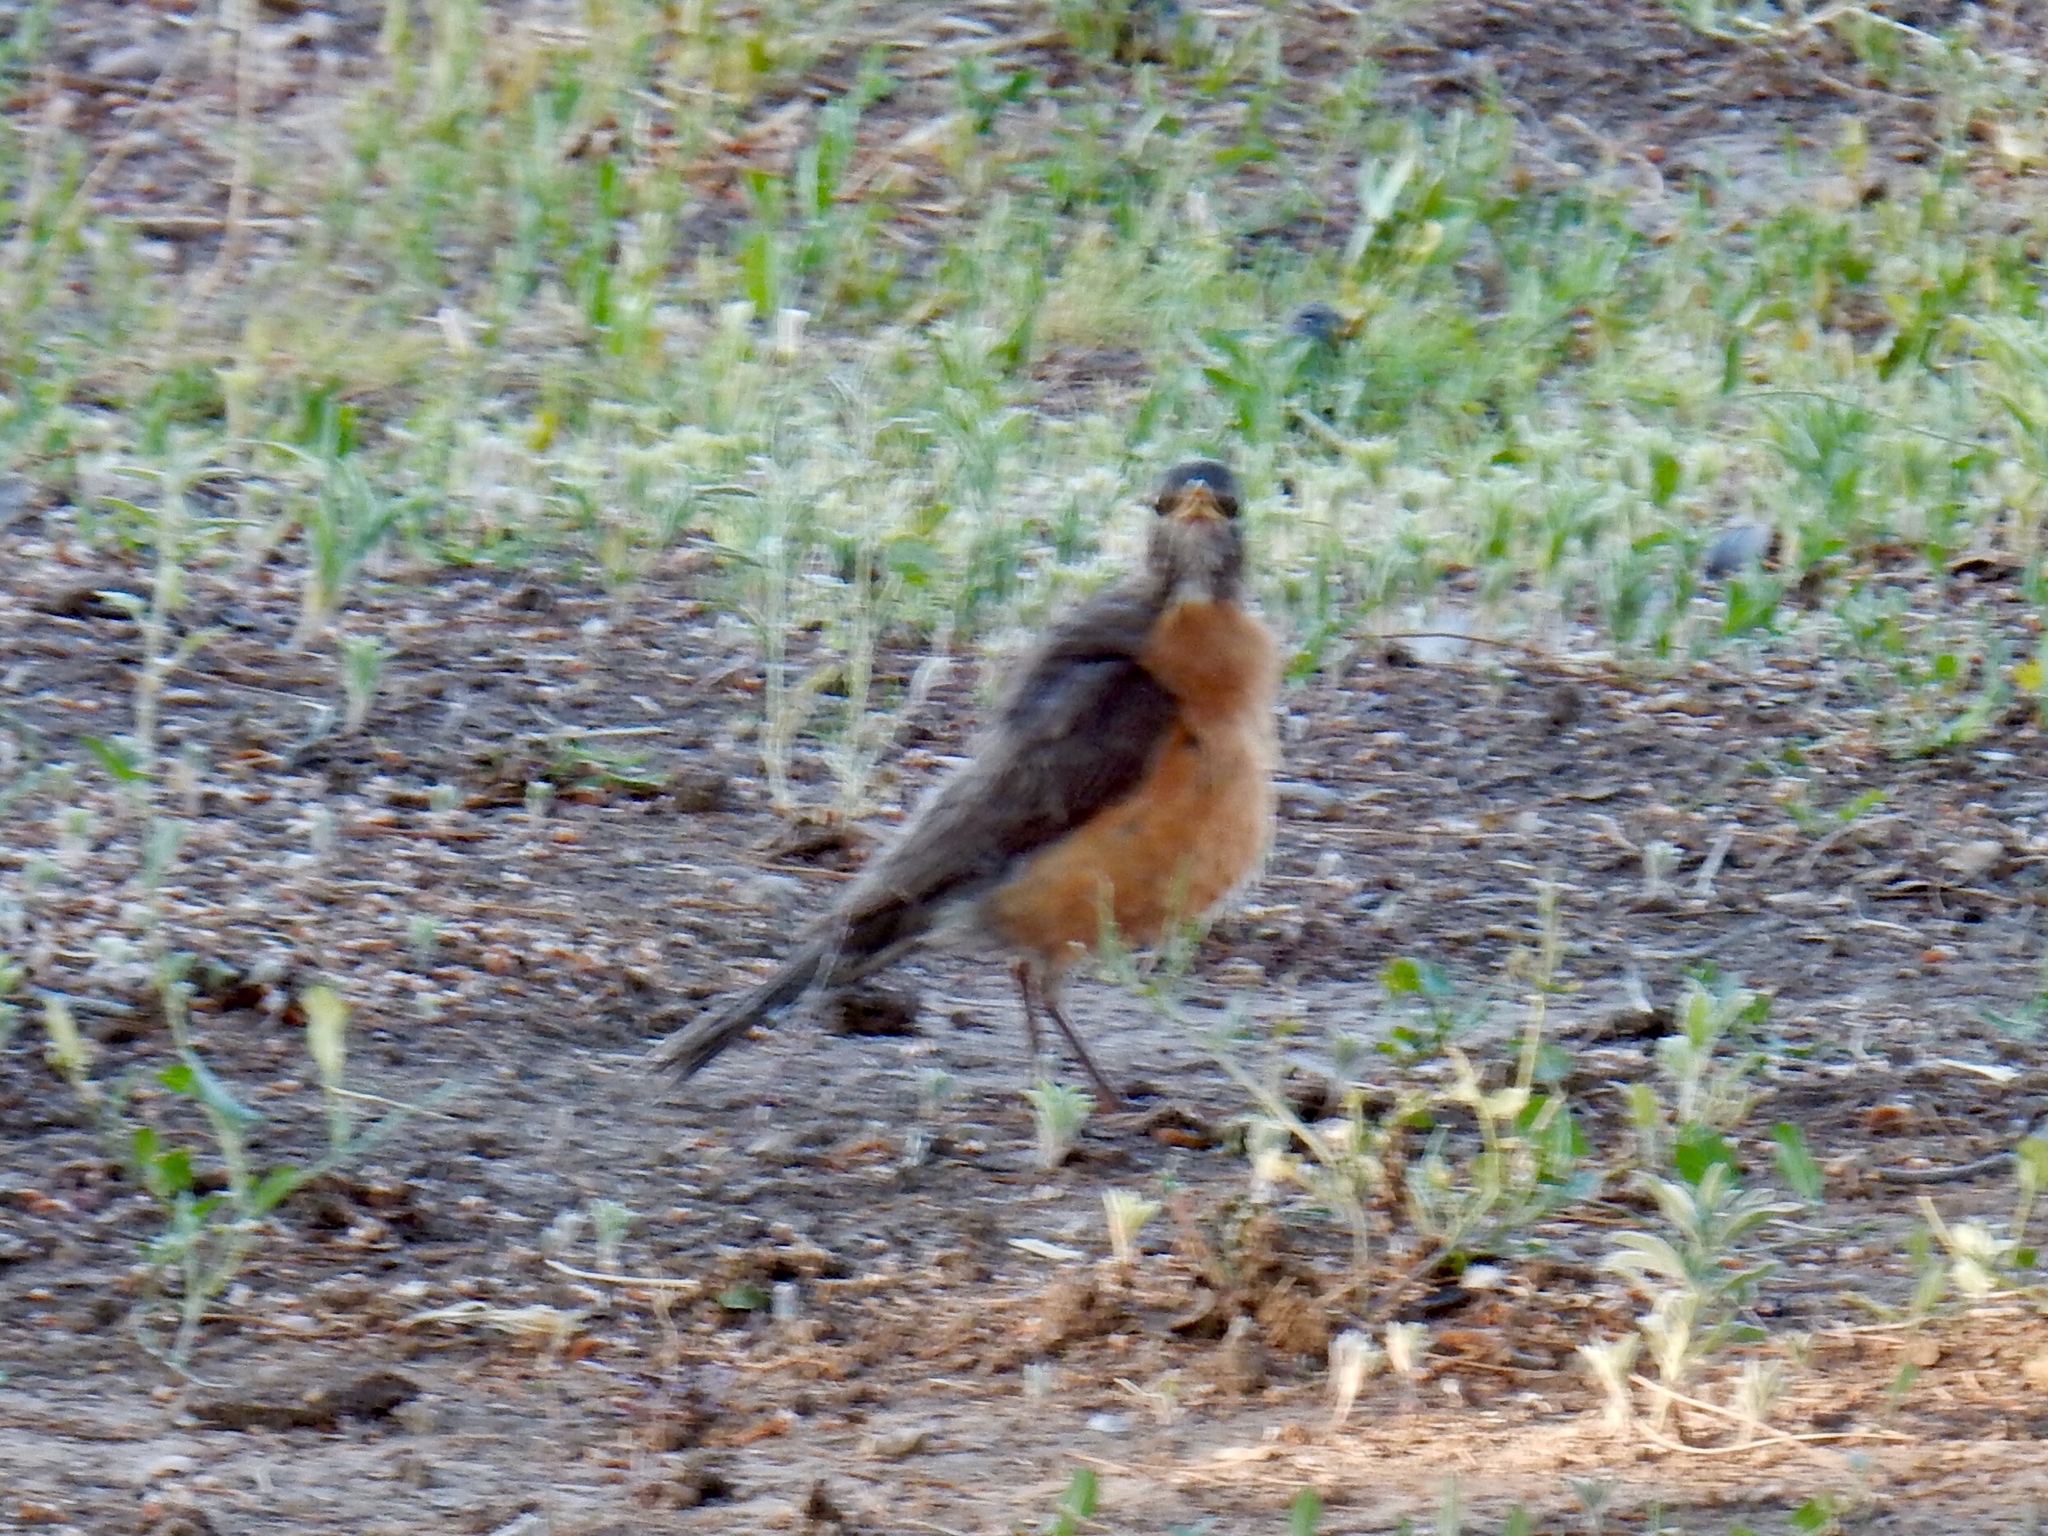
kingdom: Animalia
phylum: Chordata
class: Aves
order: Passeriformes
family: Turdidae
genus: Turdus
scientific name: Turdus migratorius
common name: American robin
